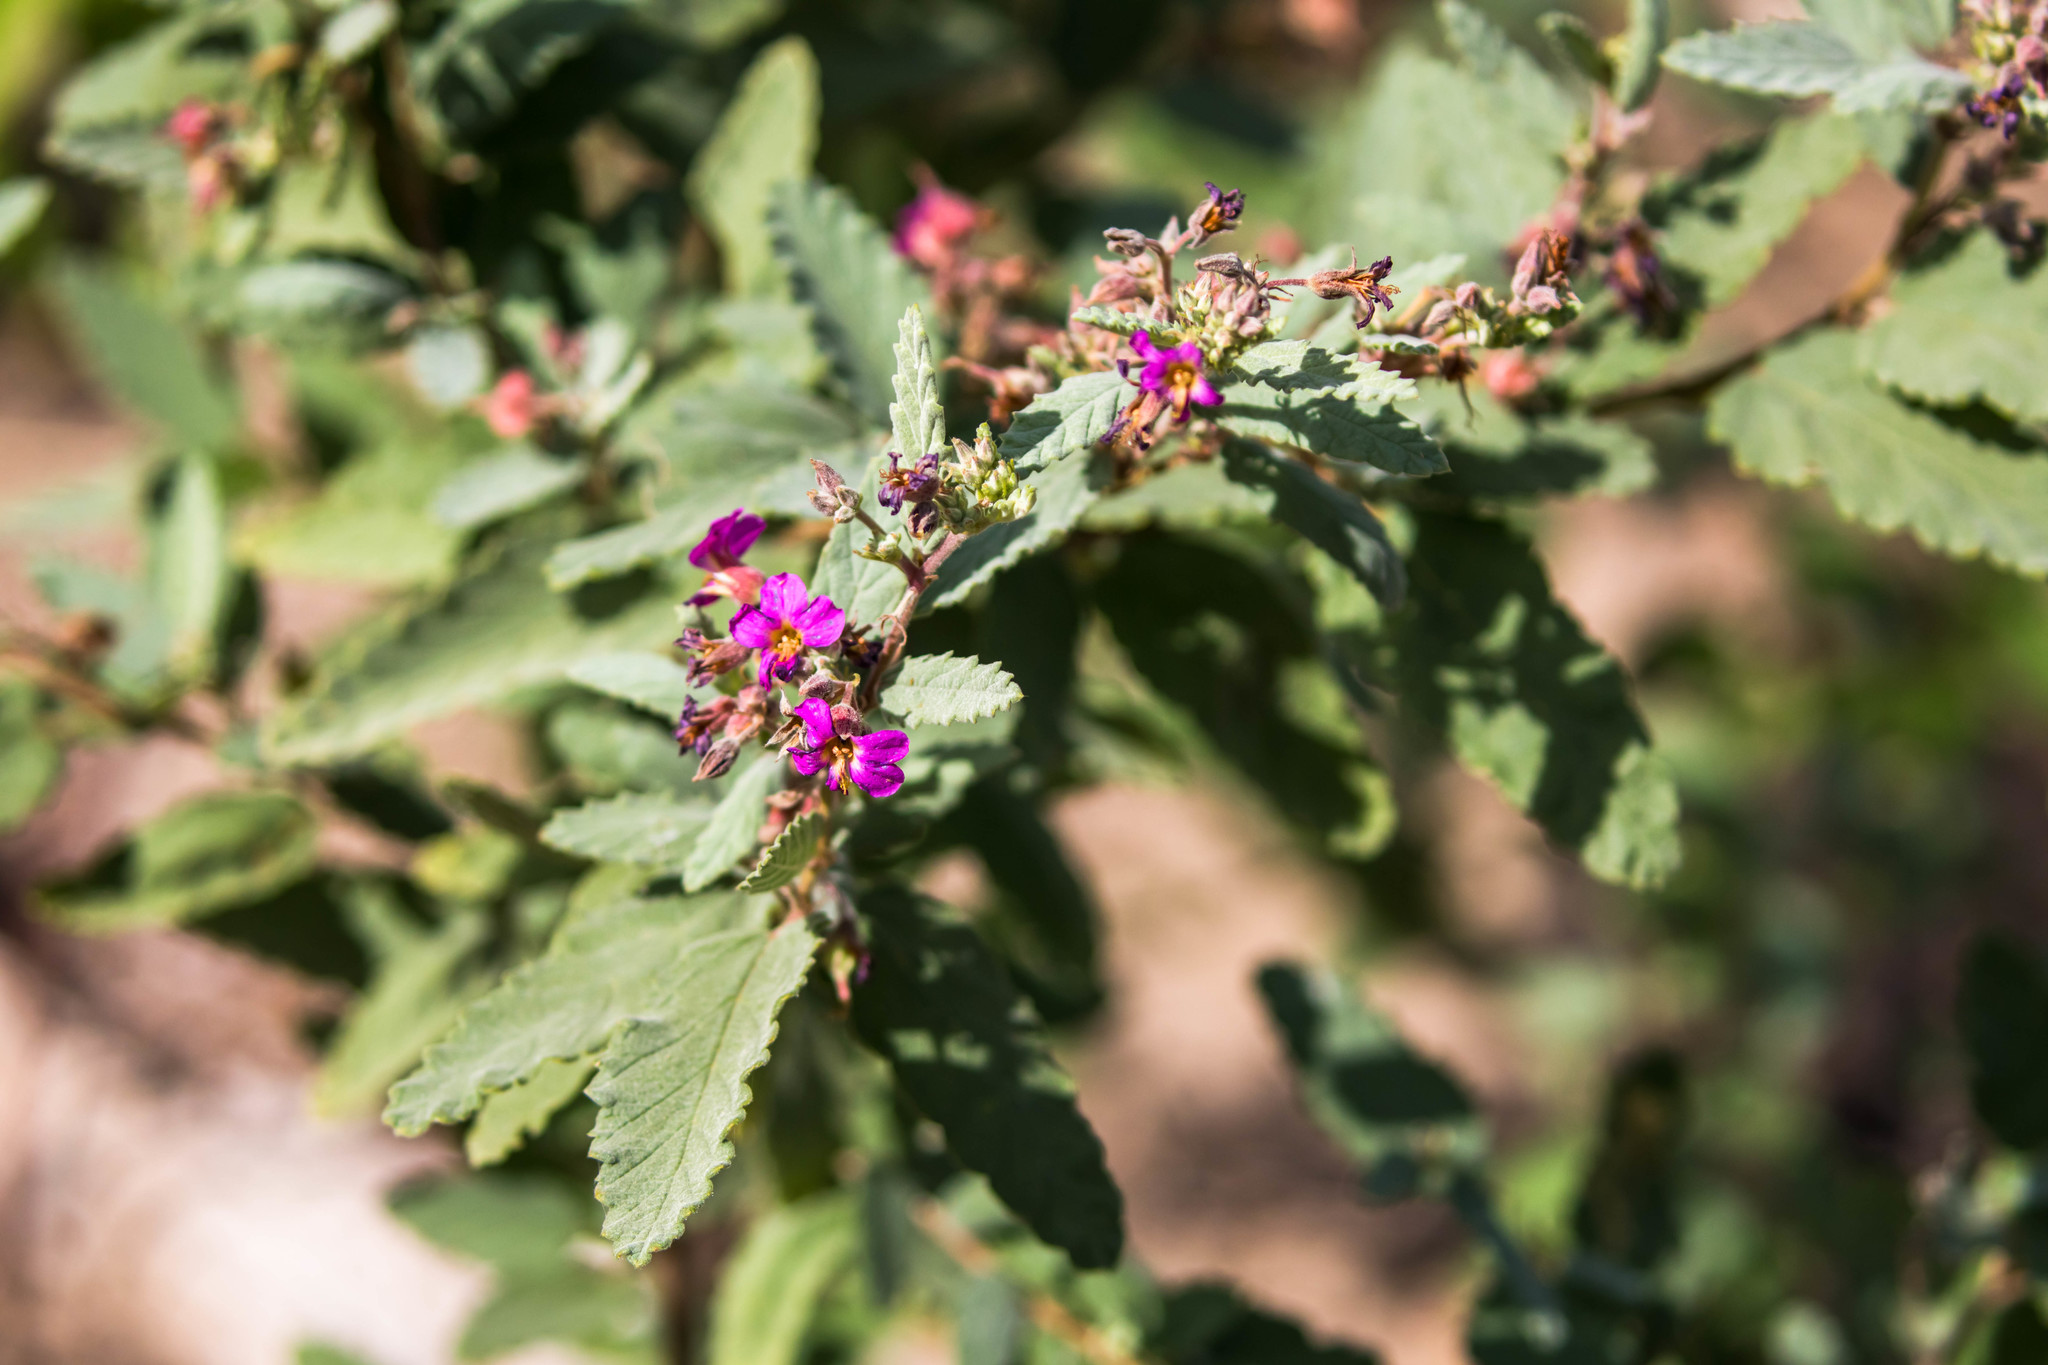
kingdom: Plantae
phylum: Tracheophyta
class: Magnoliopsida
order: Malvales
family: Malvaceae
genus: Melochia
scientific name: Melochia tomentosa
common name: Black torch
